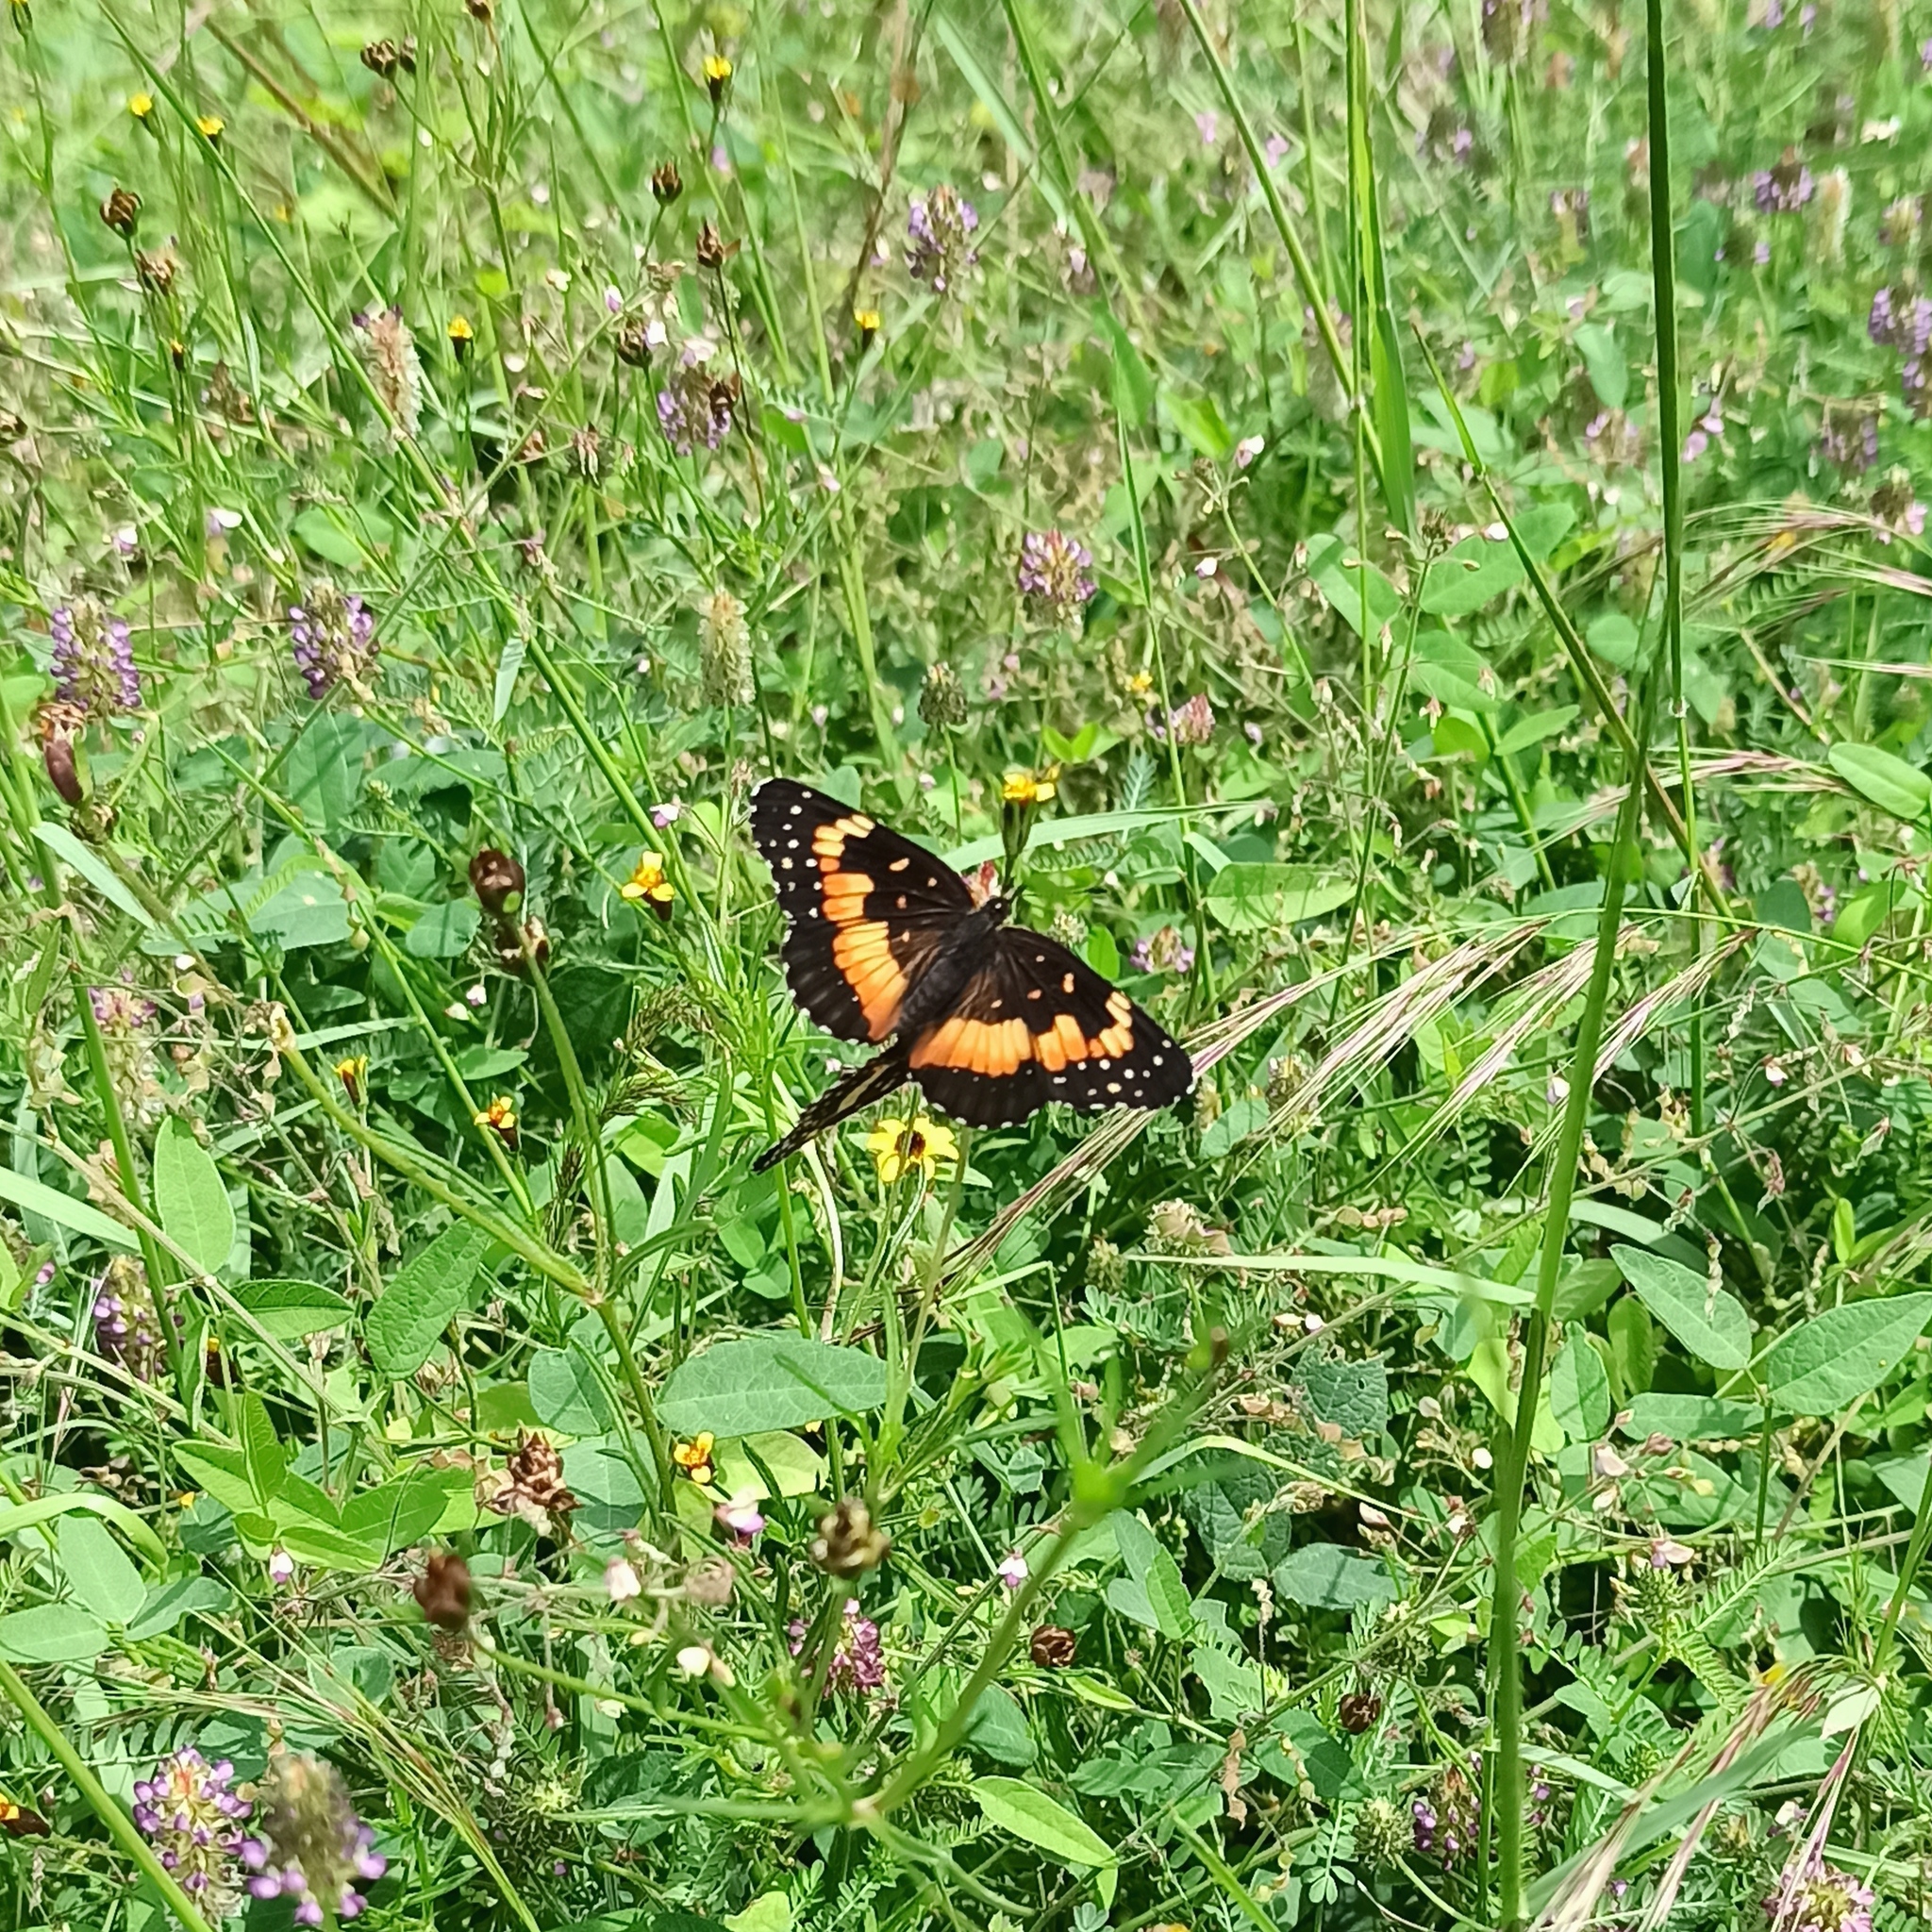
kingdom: Animalia
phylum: Arthropoda
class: Insecta
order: Lepidoptera
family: Nymphalidae
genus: Chlosyne
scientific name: Chlosyne lacinia
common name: Bordered patch
